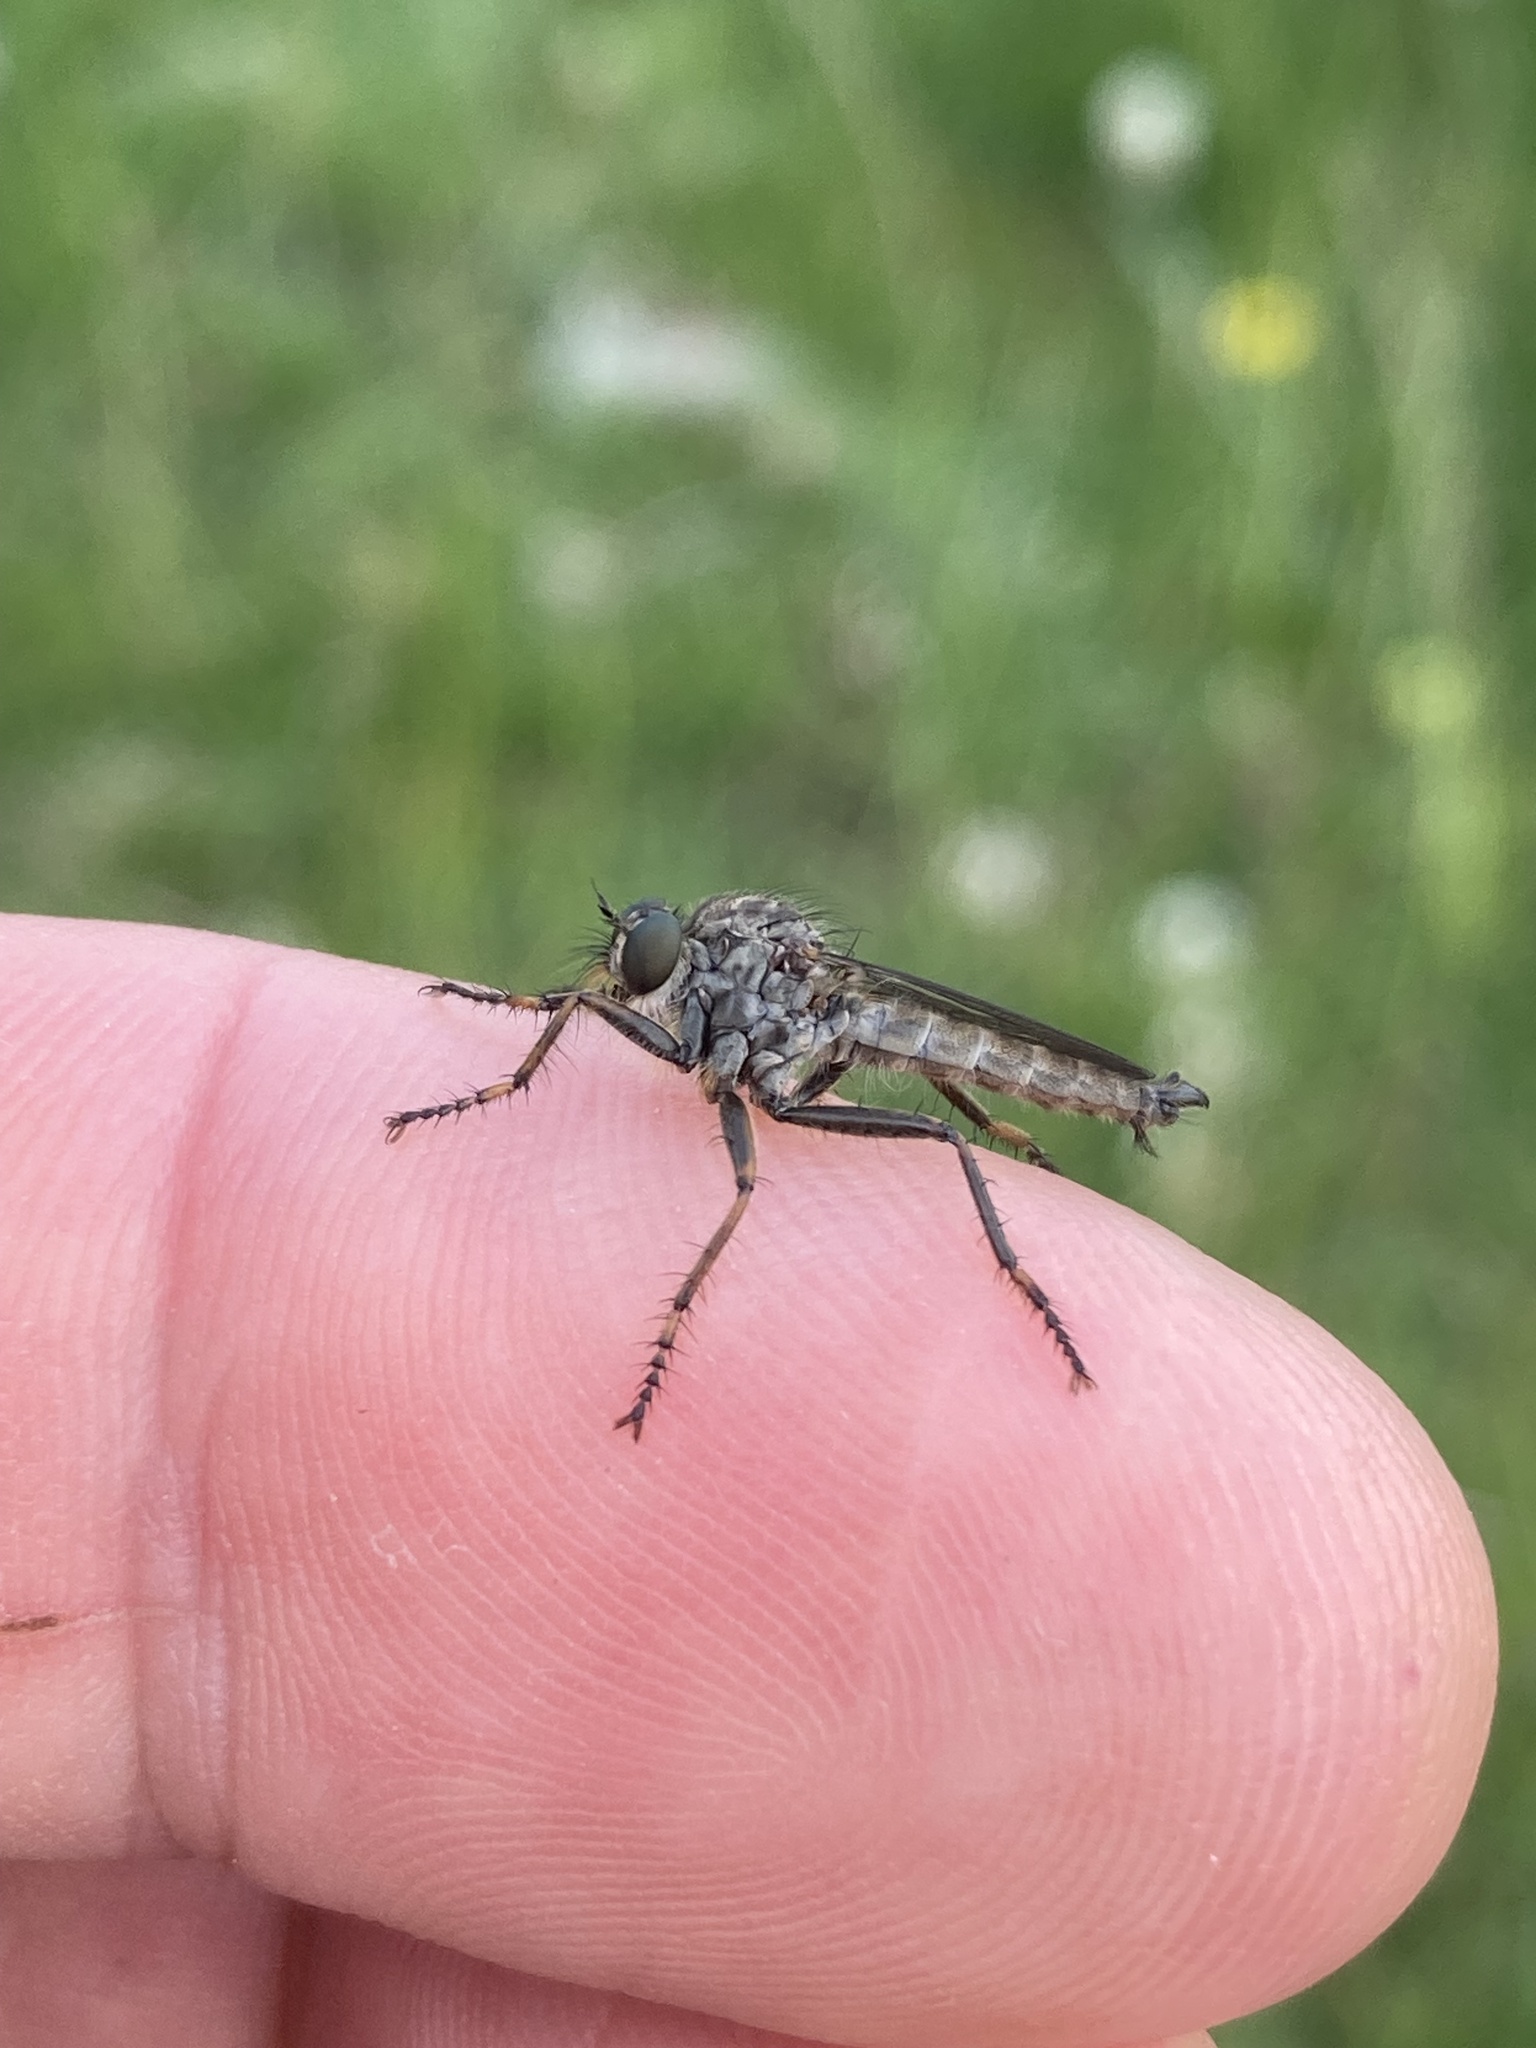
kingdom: Animalia
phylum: Arthropoda
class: Insecta
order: Diptera
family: Asilidae
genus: Machimus
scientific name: Machimus atricapillus
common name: Kite-tailed robberfly
